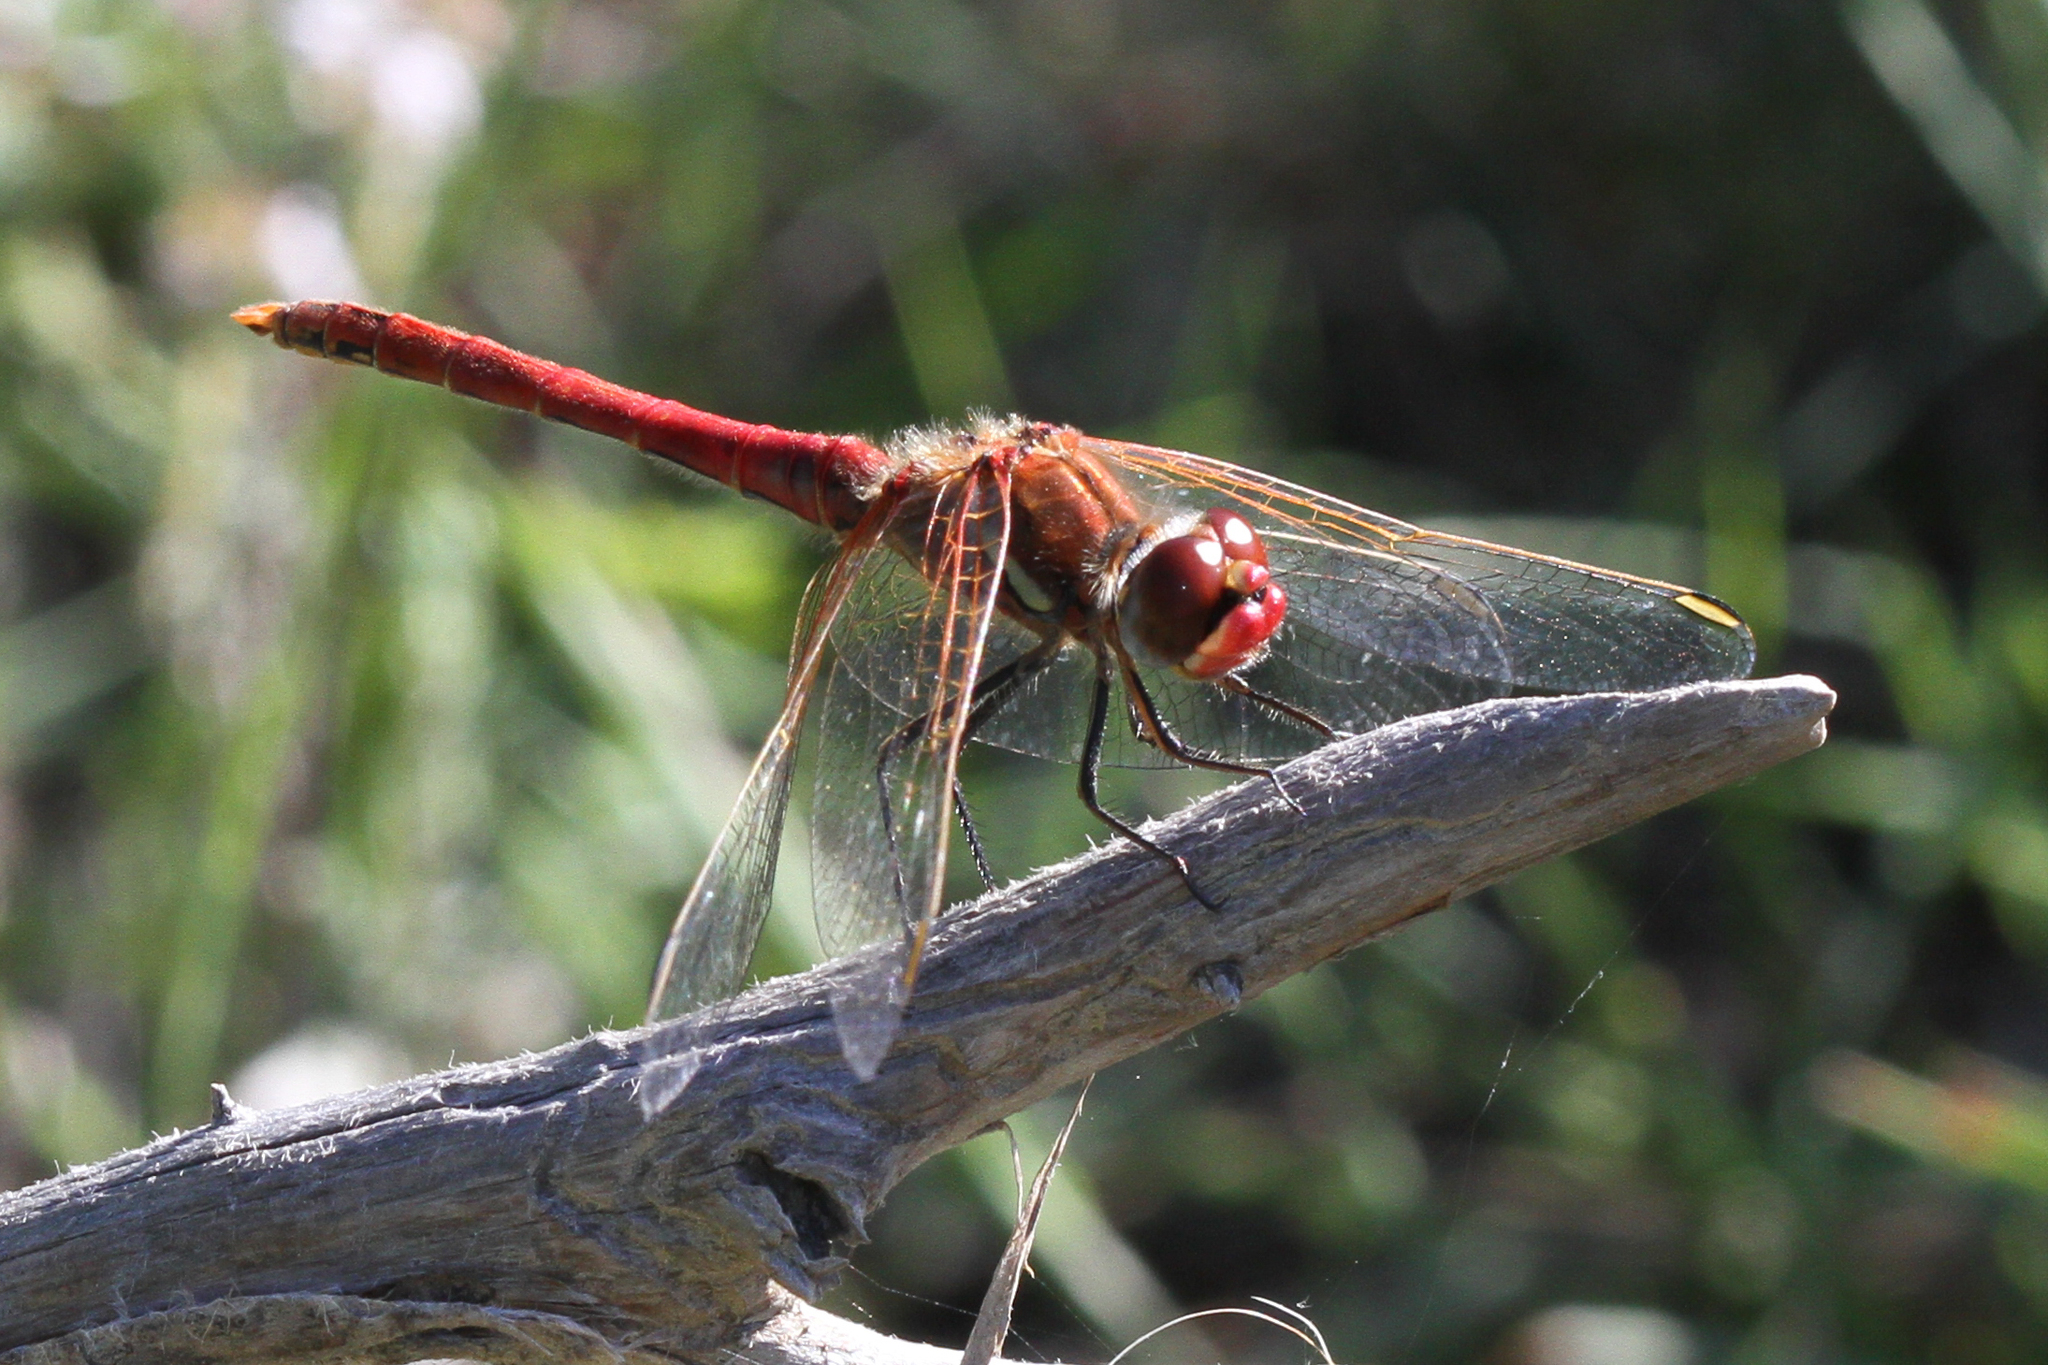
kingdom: Animalia
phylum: Arthropoda
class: Insecta
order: Odonata
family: Libellulidae
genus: Sympetrum
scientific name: Sympetrum fonscolombii
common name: Red-veined darter
